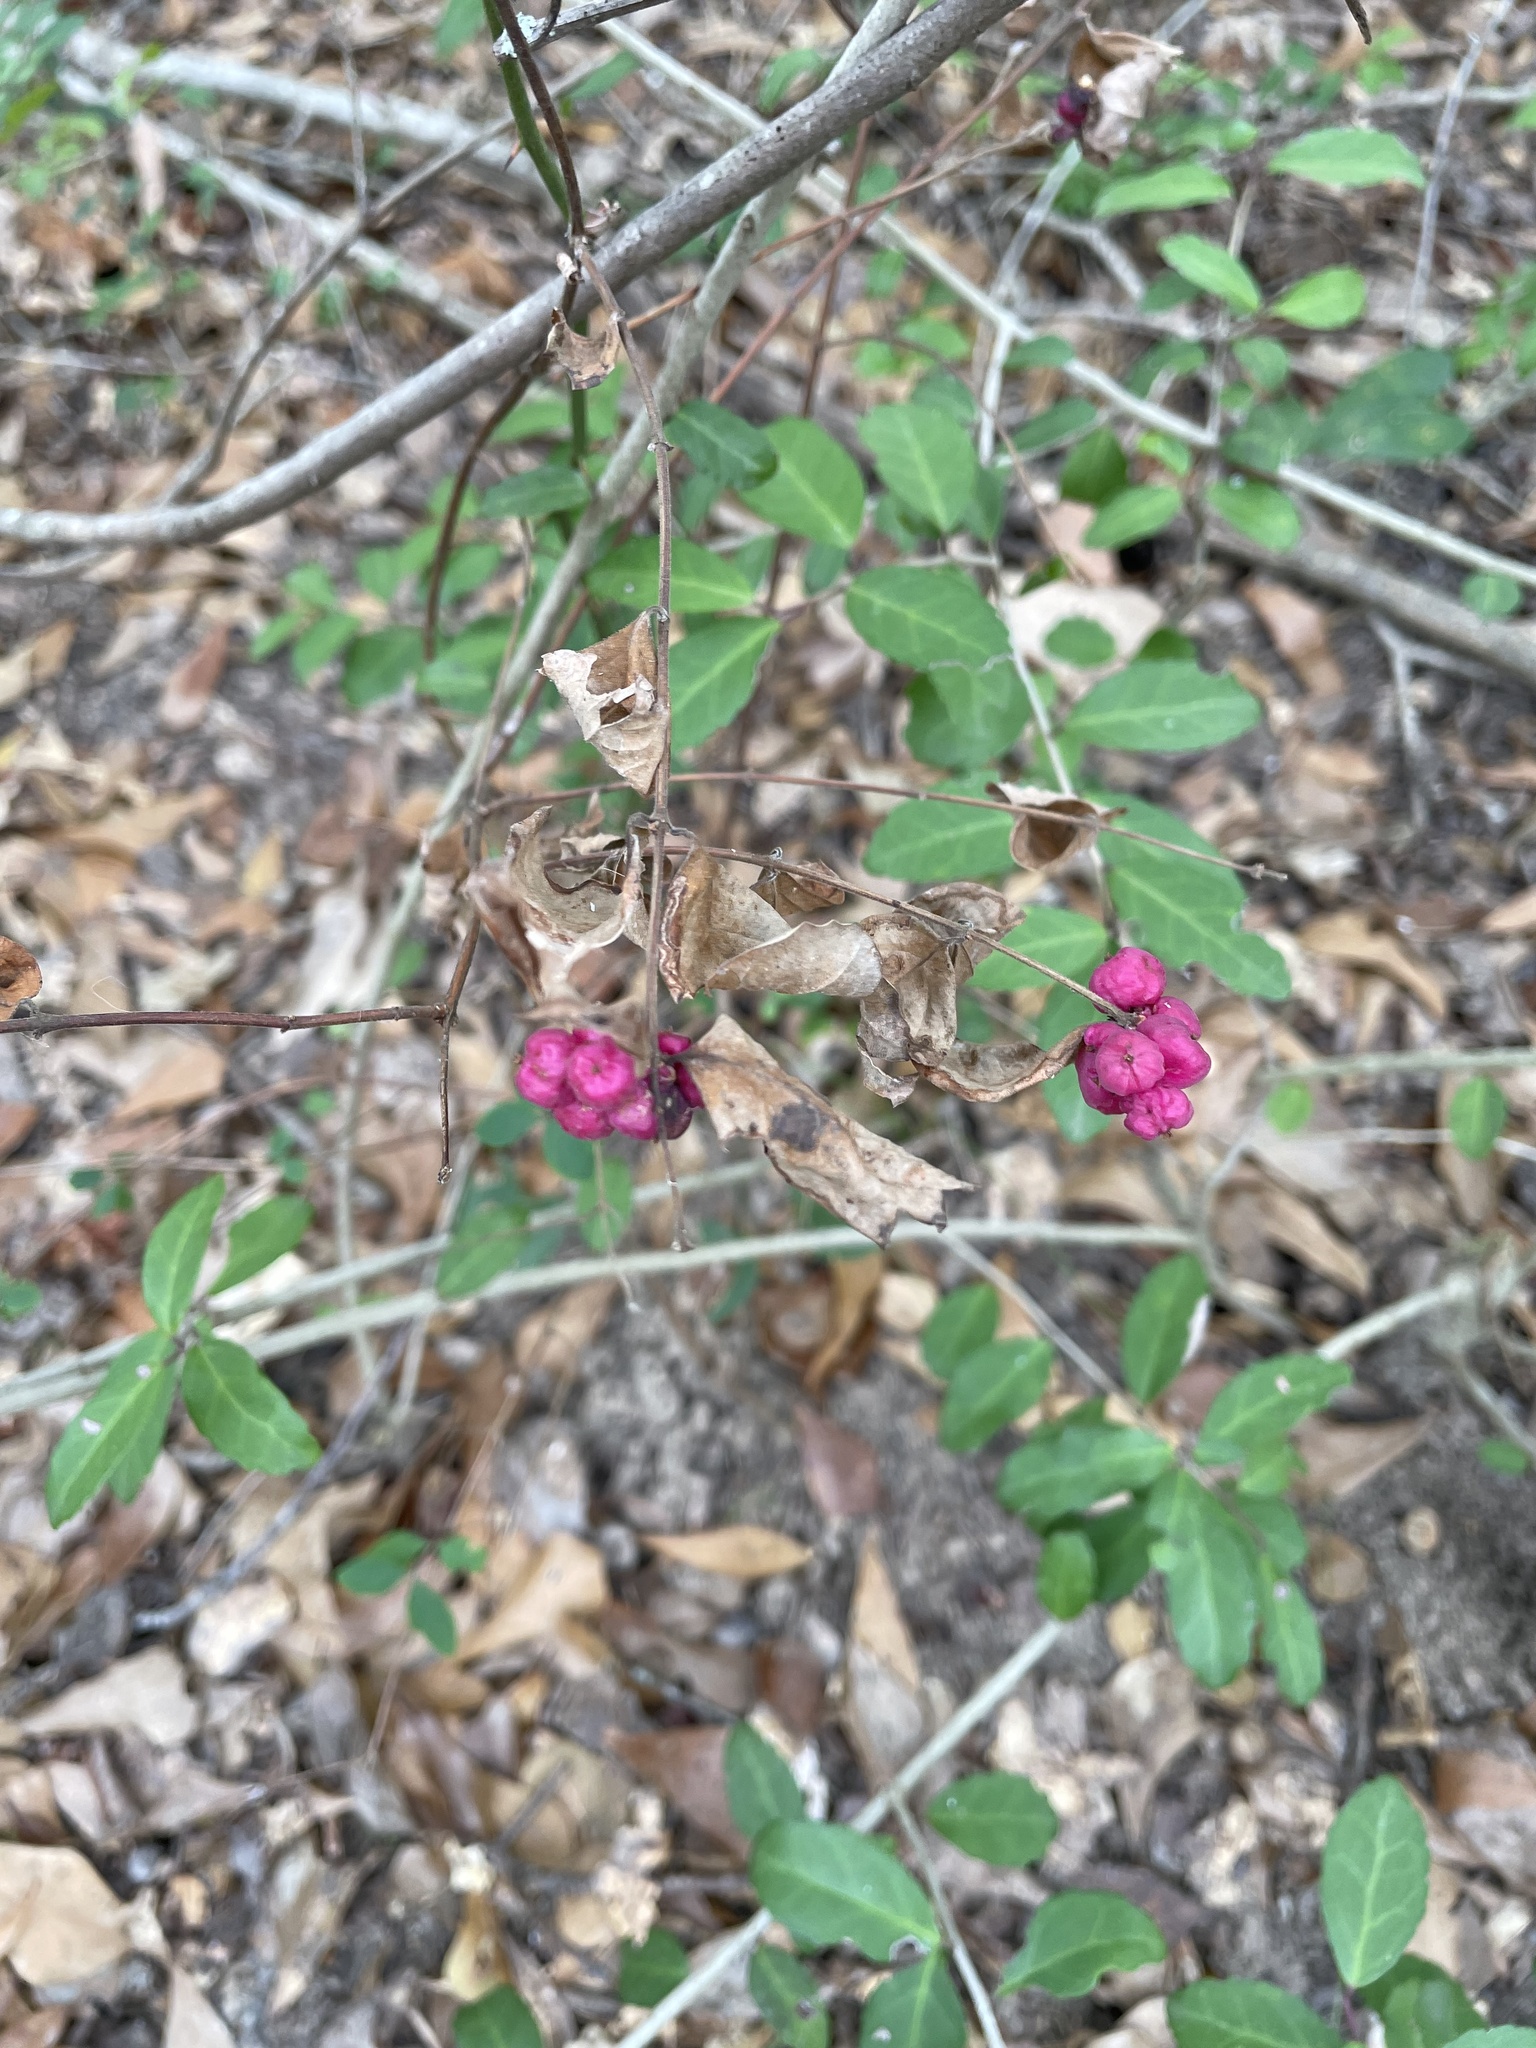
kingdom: Plantae
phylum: Tracheophyta
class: Magnoliopsida
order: Dipsacales
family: Caprifoliaceae
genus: Symphoricarpos
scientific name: Symphoricarpos orbiculatus
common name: Coralberry
